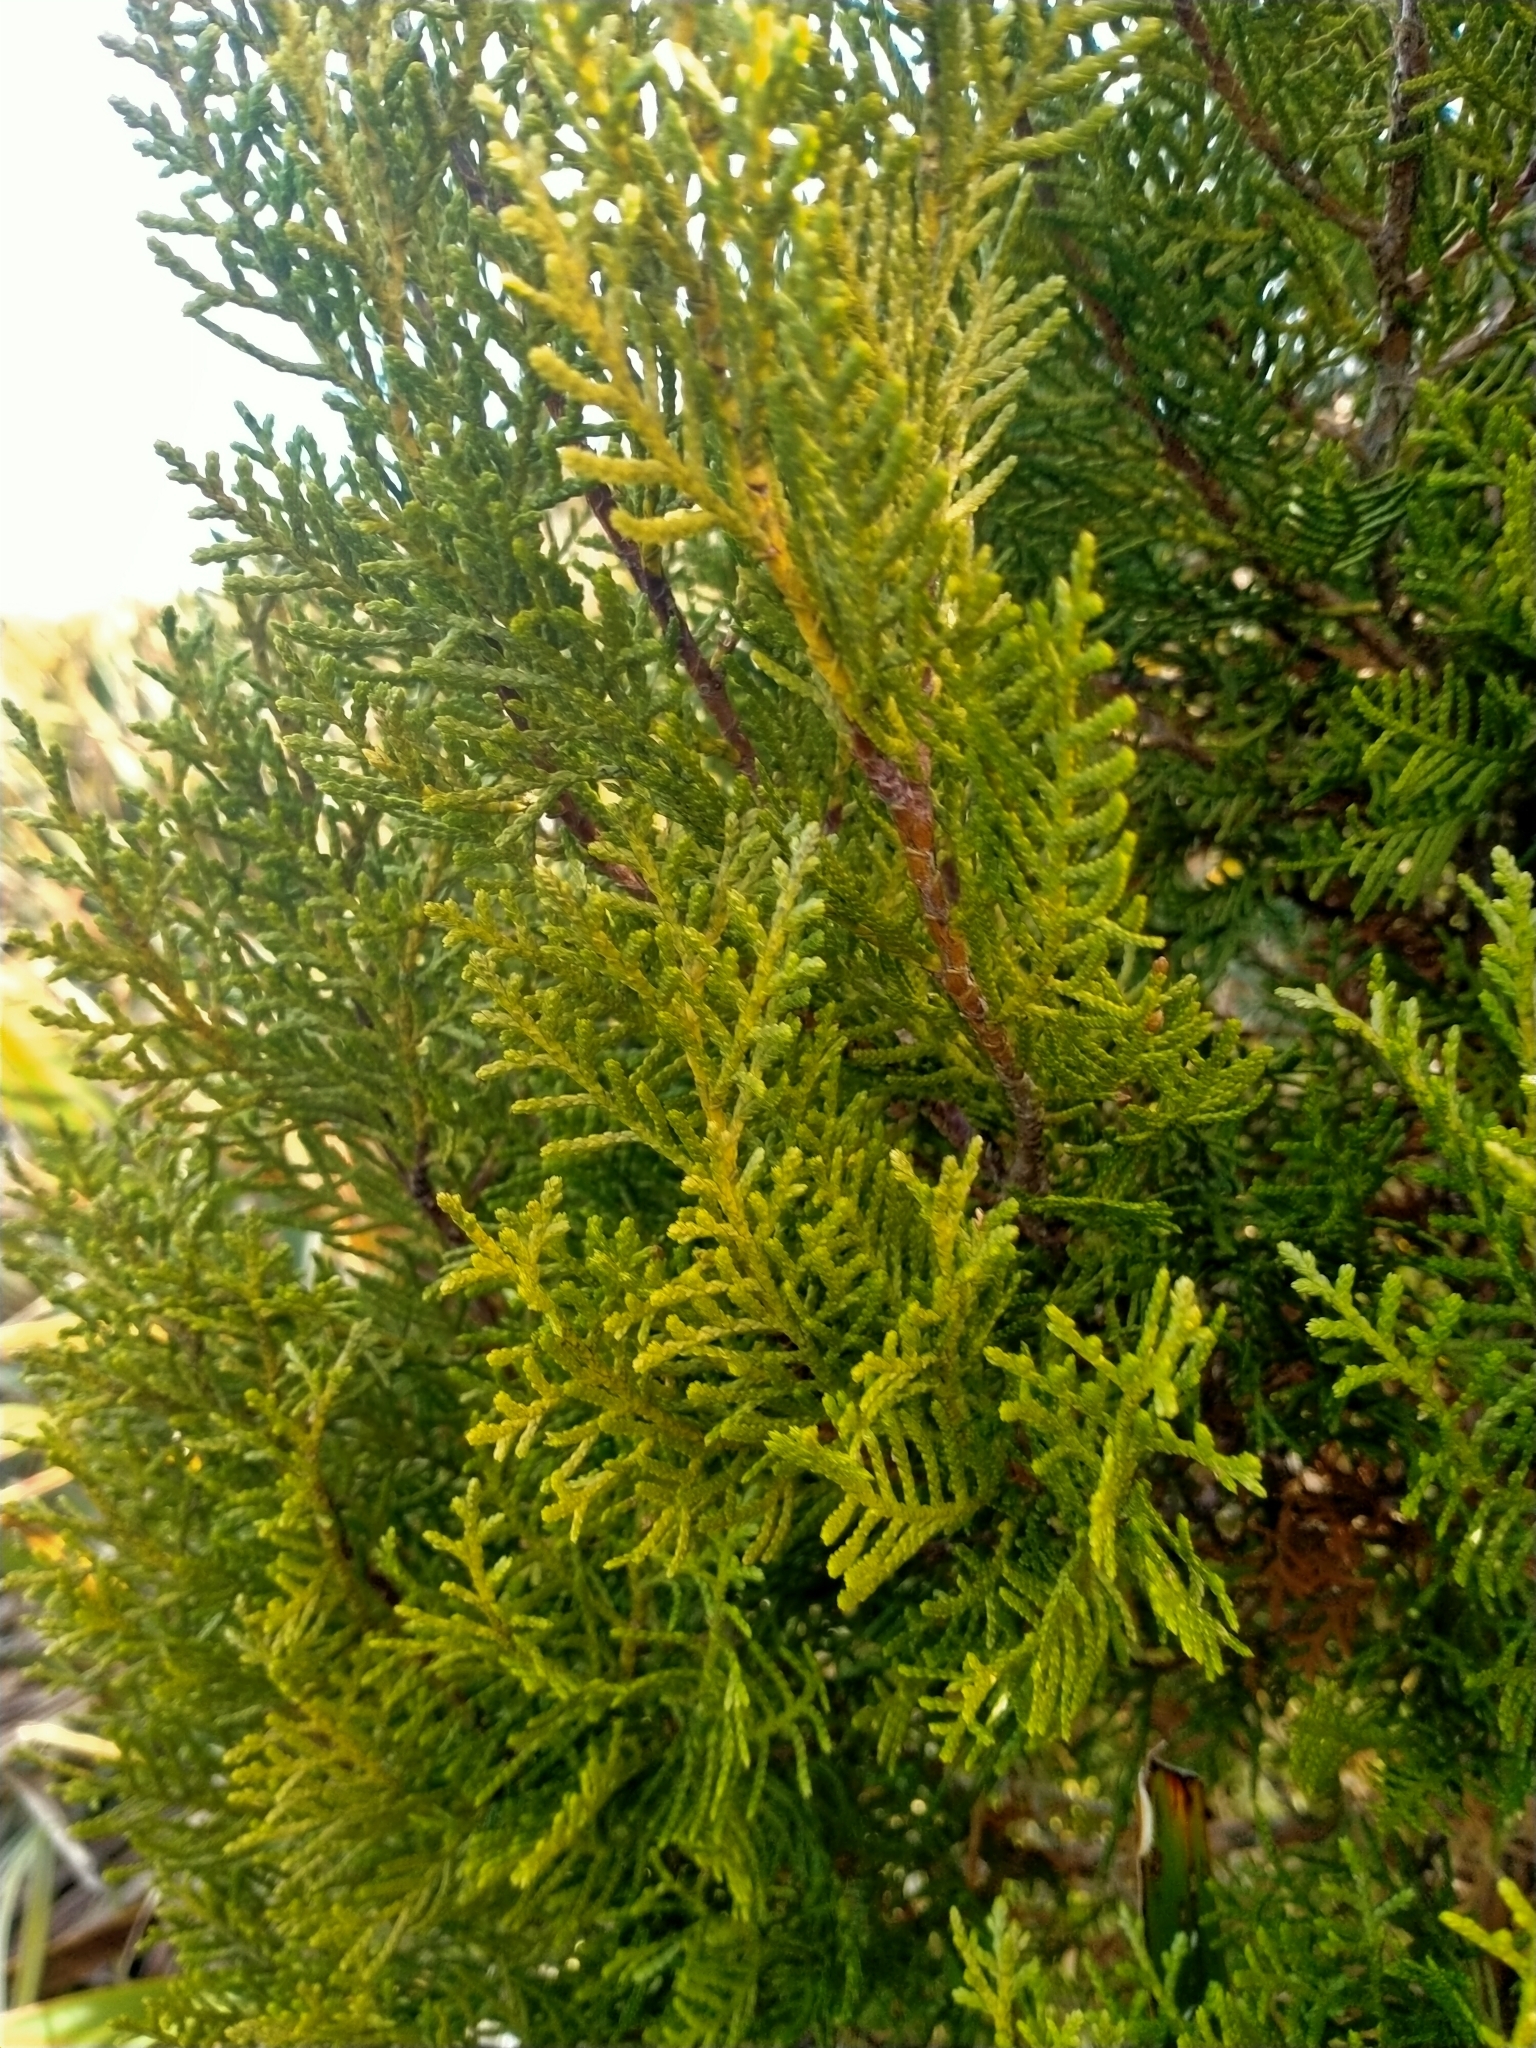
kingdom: Plantae
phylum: Tracheophyta
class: Pinopsida
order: Pinales
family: Cupressaceae
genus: Libocedrus
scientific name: Libocedrus bidwillii
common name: Cedar
